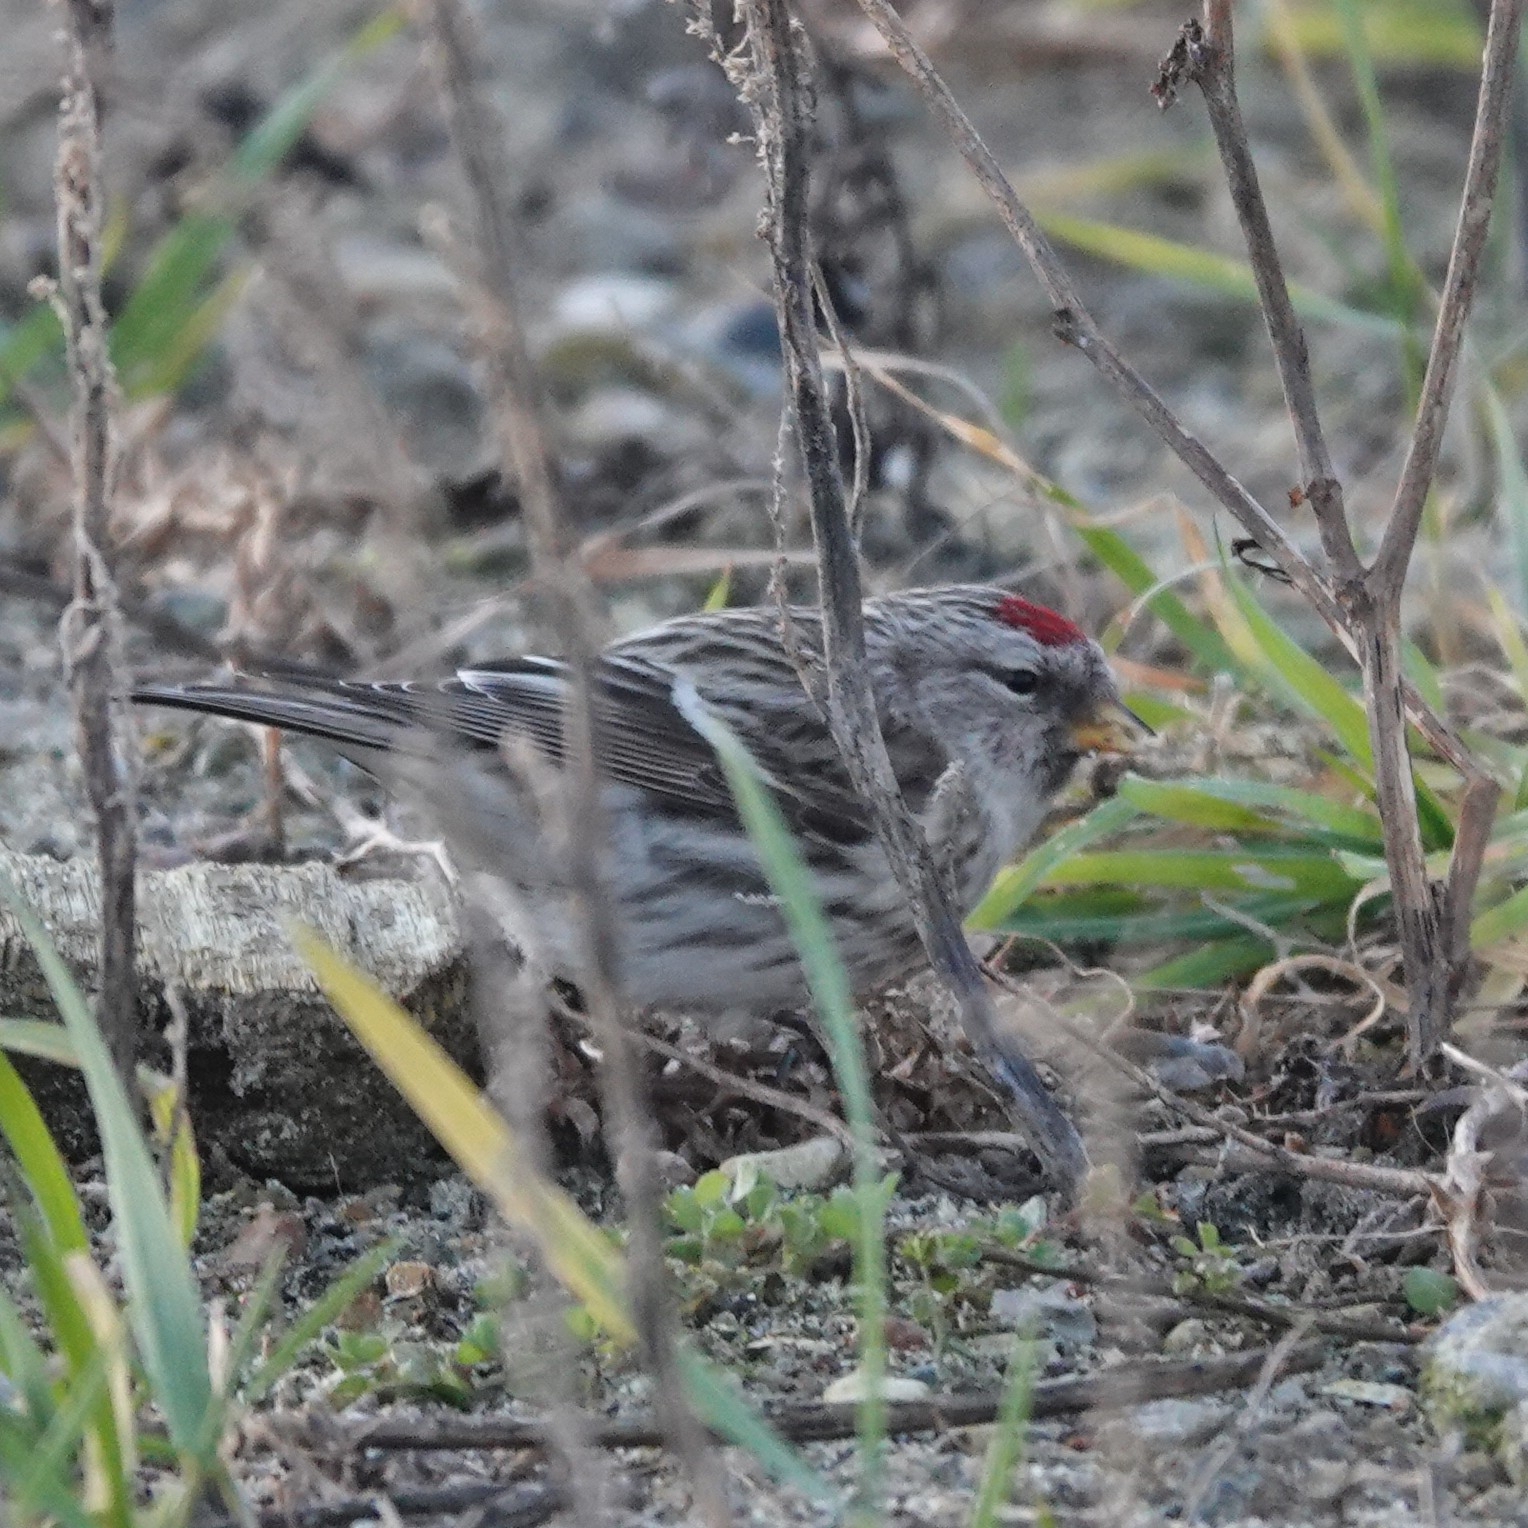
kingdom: Animalia
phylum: Chordata
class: Aves
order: Passeriformes
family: Fringillidae
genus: Acanthis
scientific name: Acanthis flammea
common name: Common redpoll
